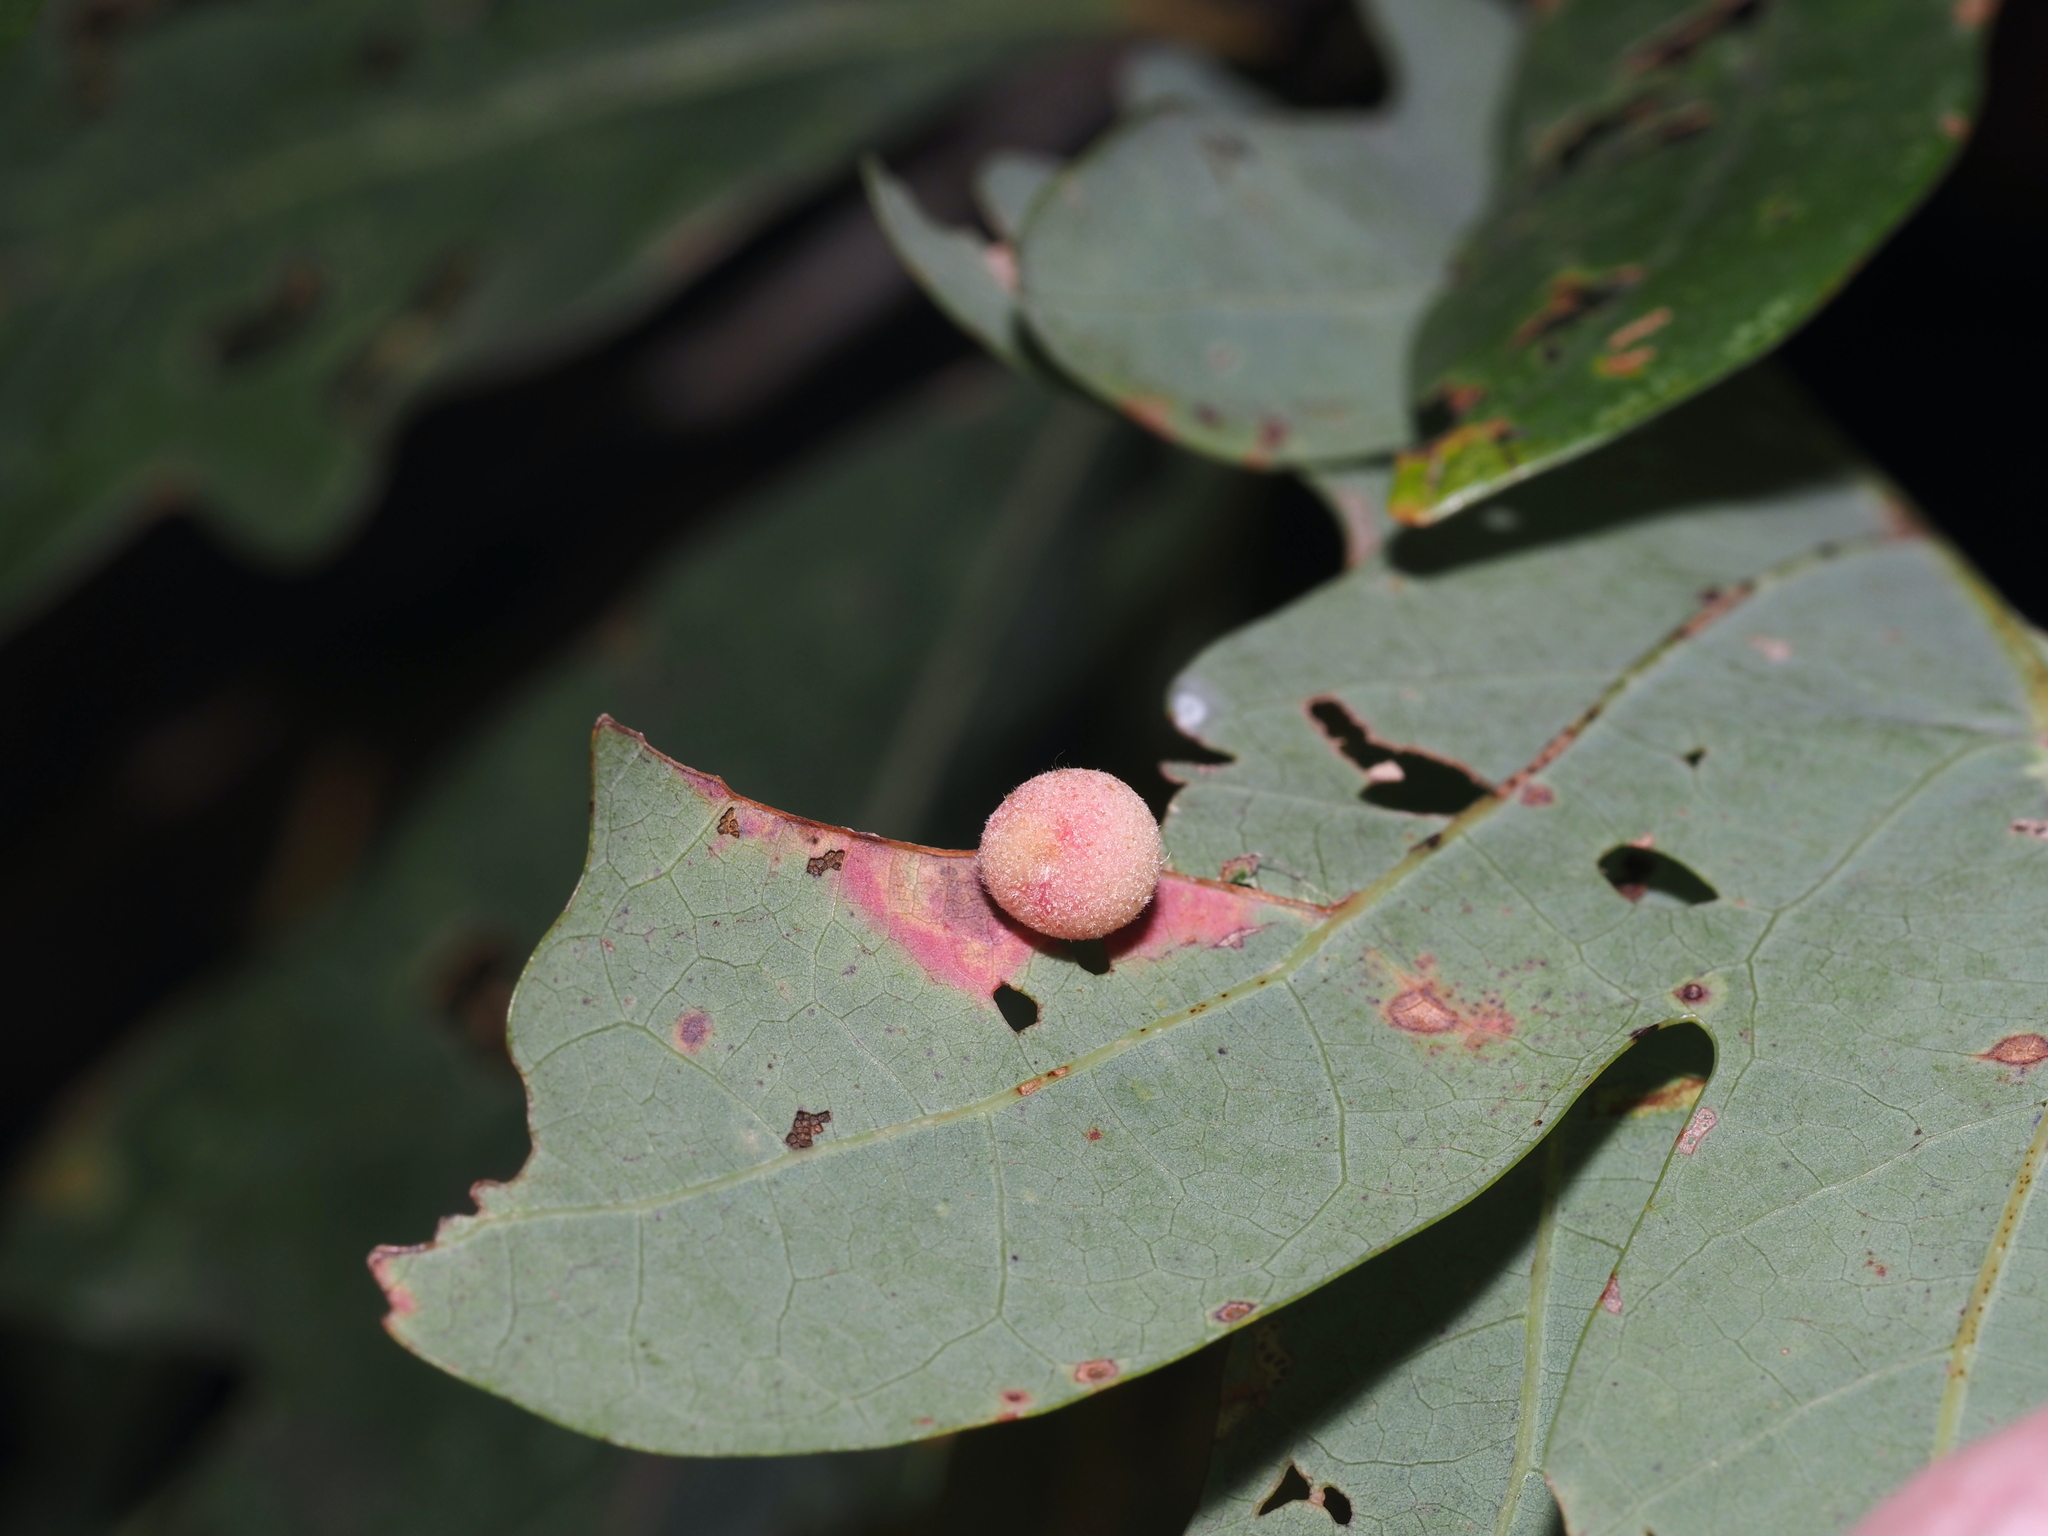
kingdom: Animalia
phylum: Arthropoda
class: Insecta
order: Hymenoptera
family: Cynipidae
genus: Philonix
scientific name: Philonix fulvicollis
